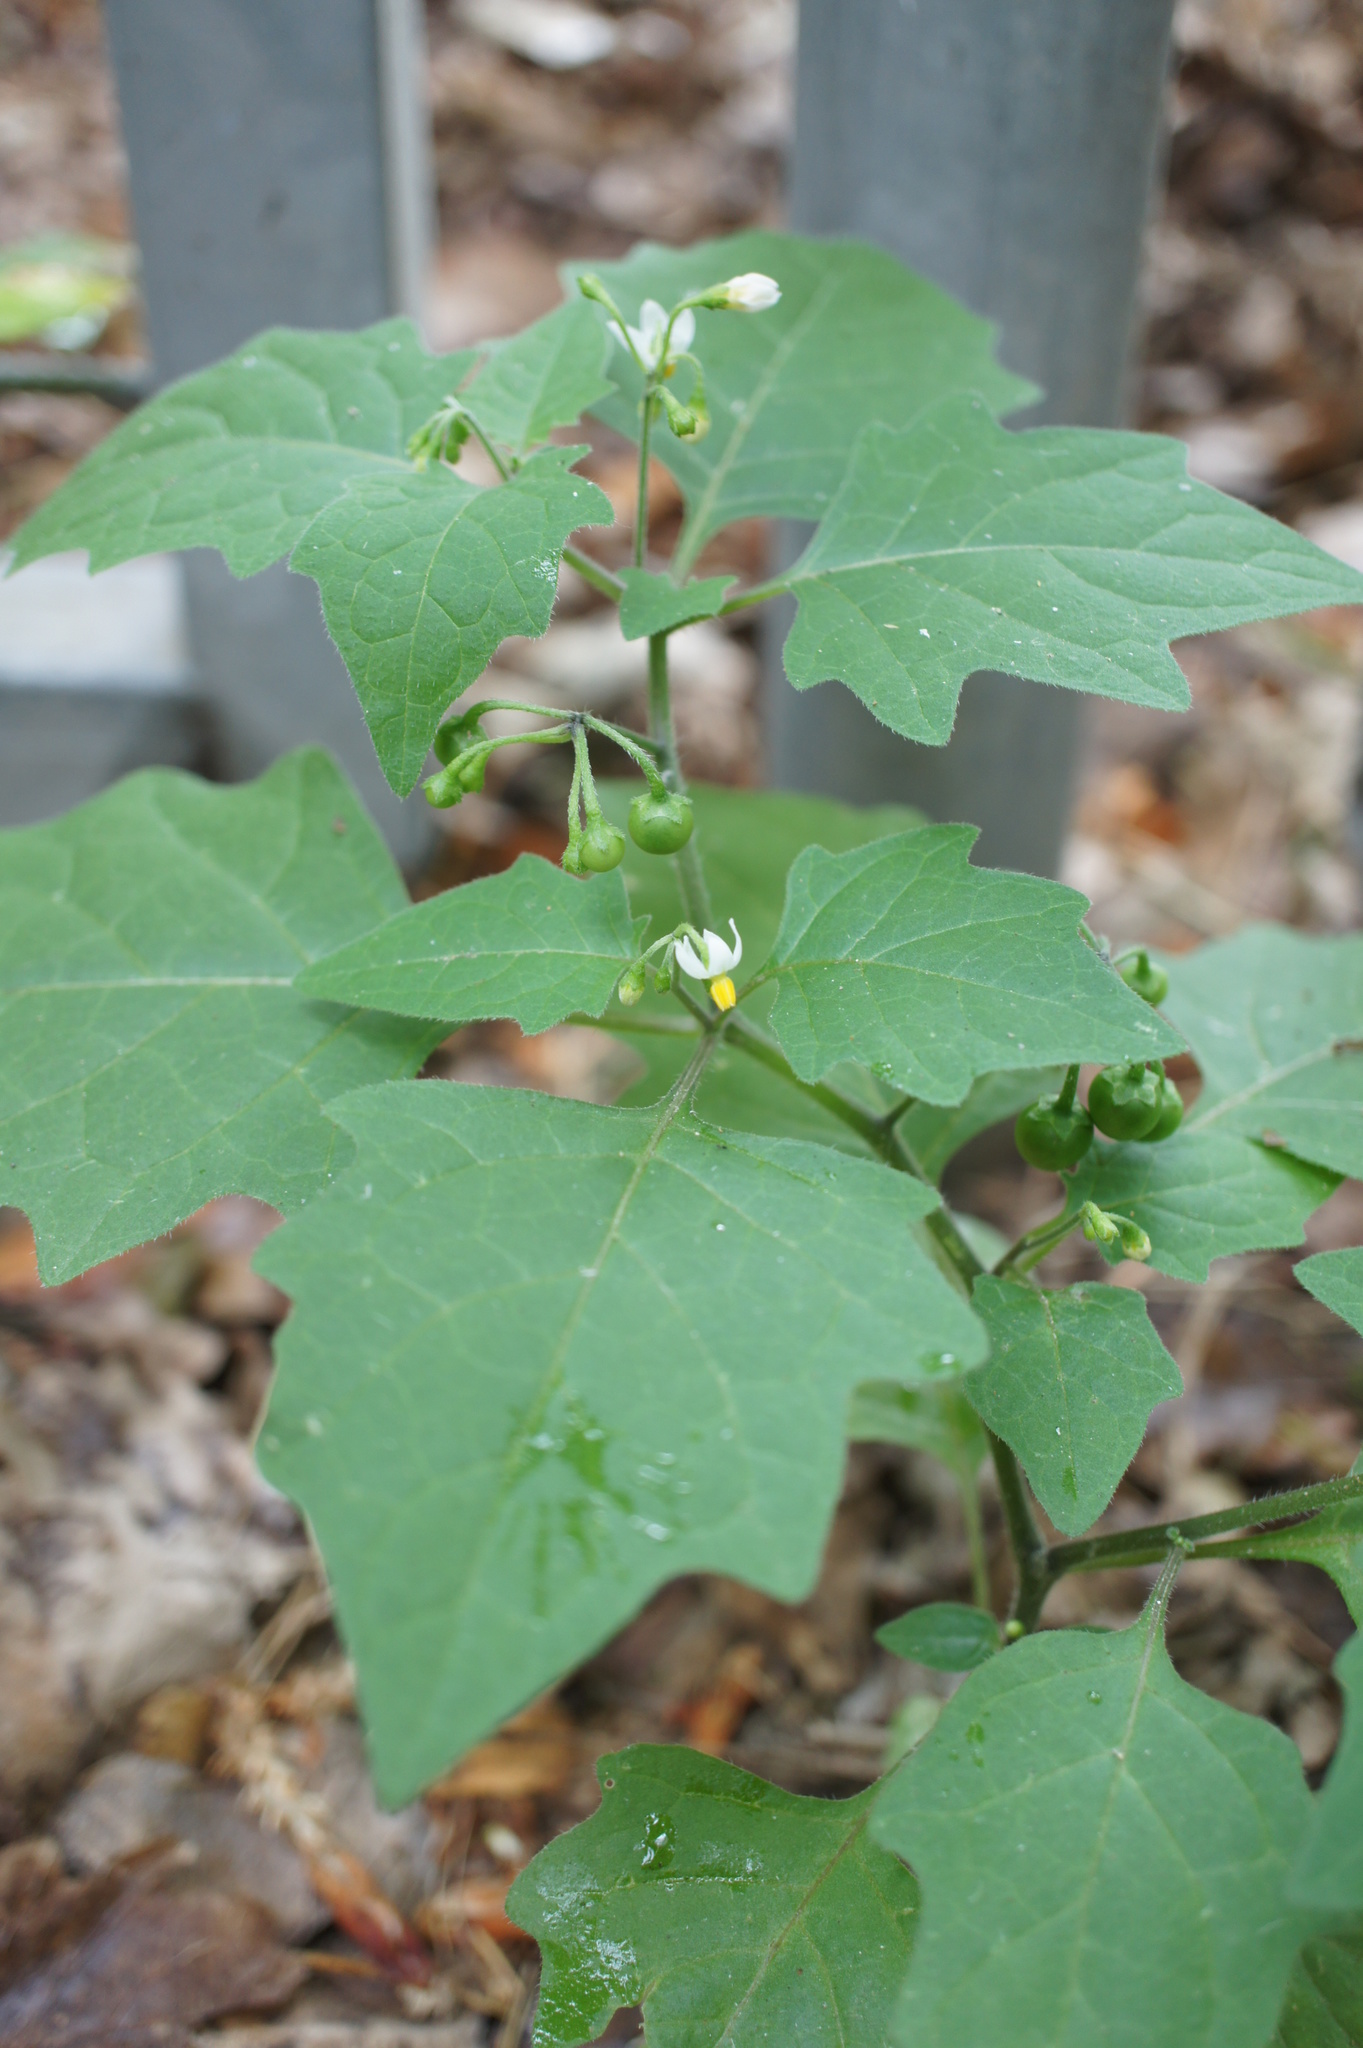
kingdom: Plantae
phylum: Tracheophyta
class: Magnoliopsida
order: Solanales
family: Solanaceae
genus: Solanum
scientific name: Solanum nigrum
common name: Black nightshade
